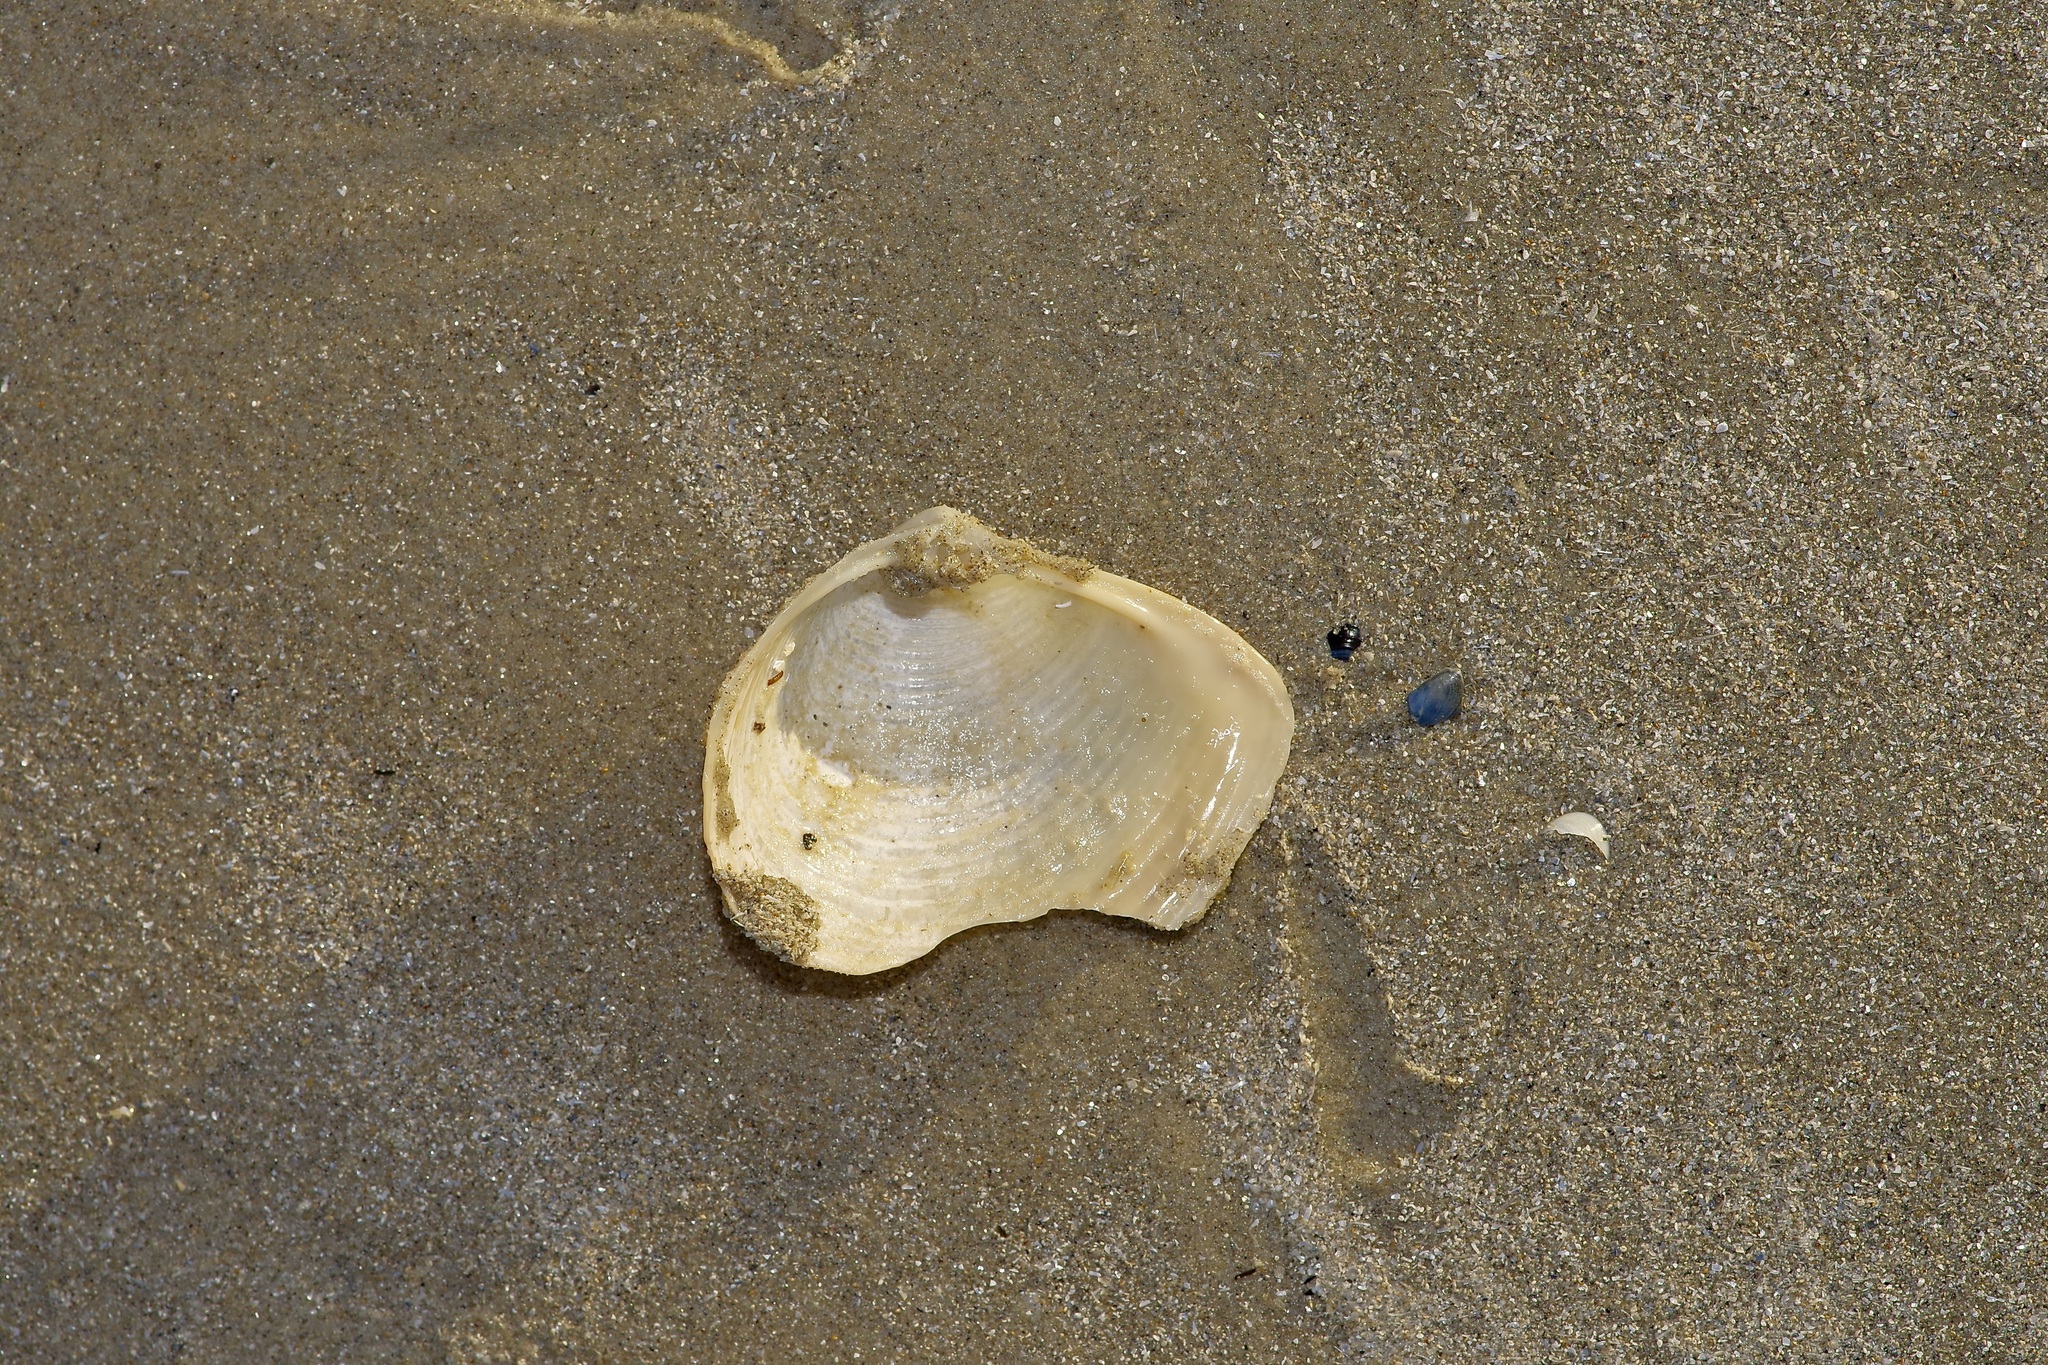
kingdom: Animalia
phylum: Mollusca
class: Bivalvia
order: Venerida
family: Anatinellidae
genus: Raeta
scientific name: Raeta plicatella
